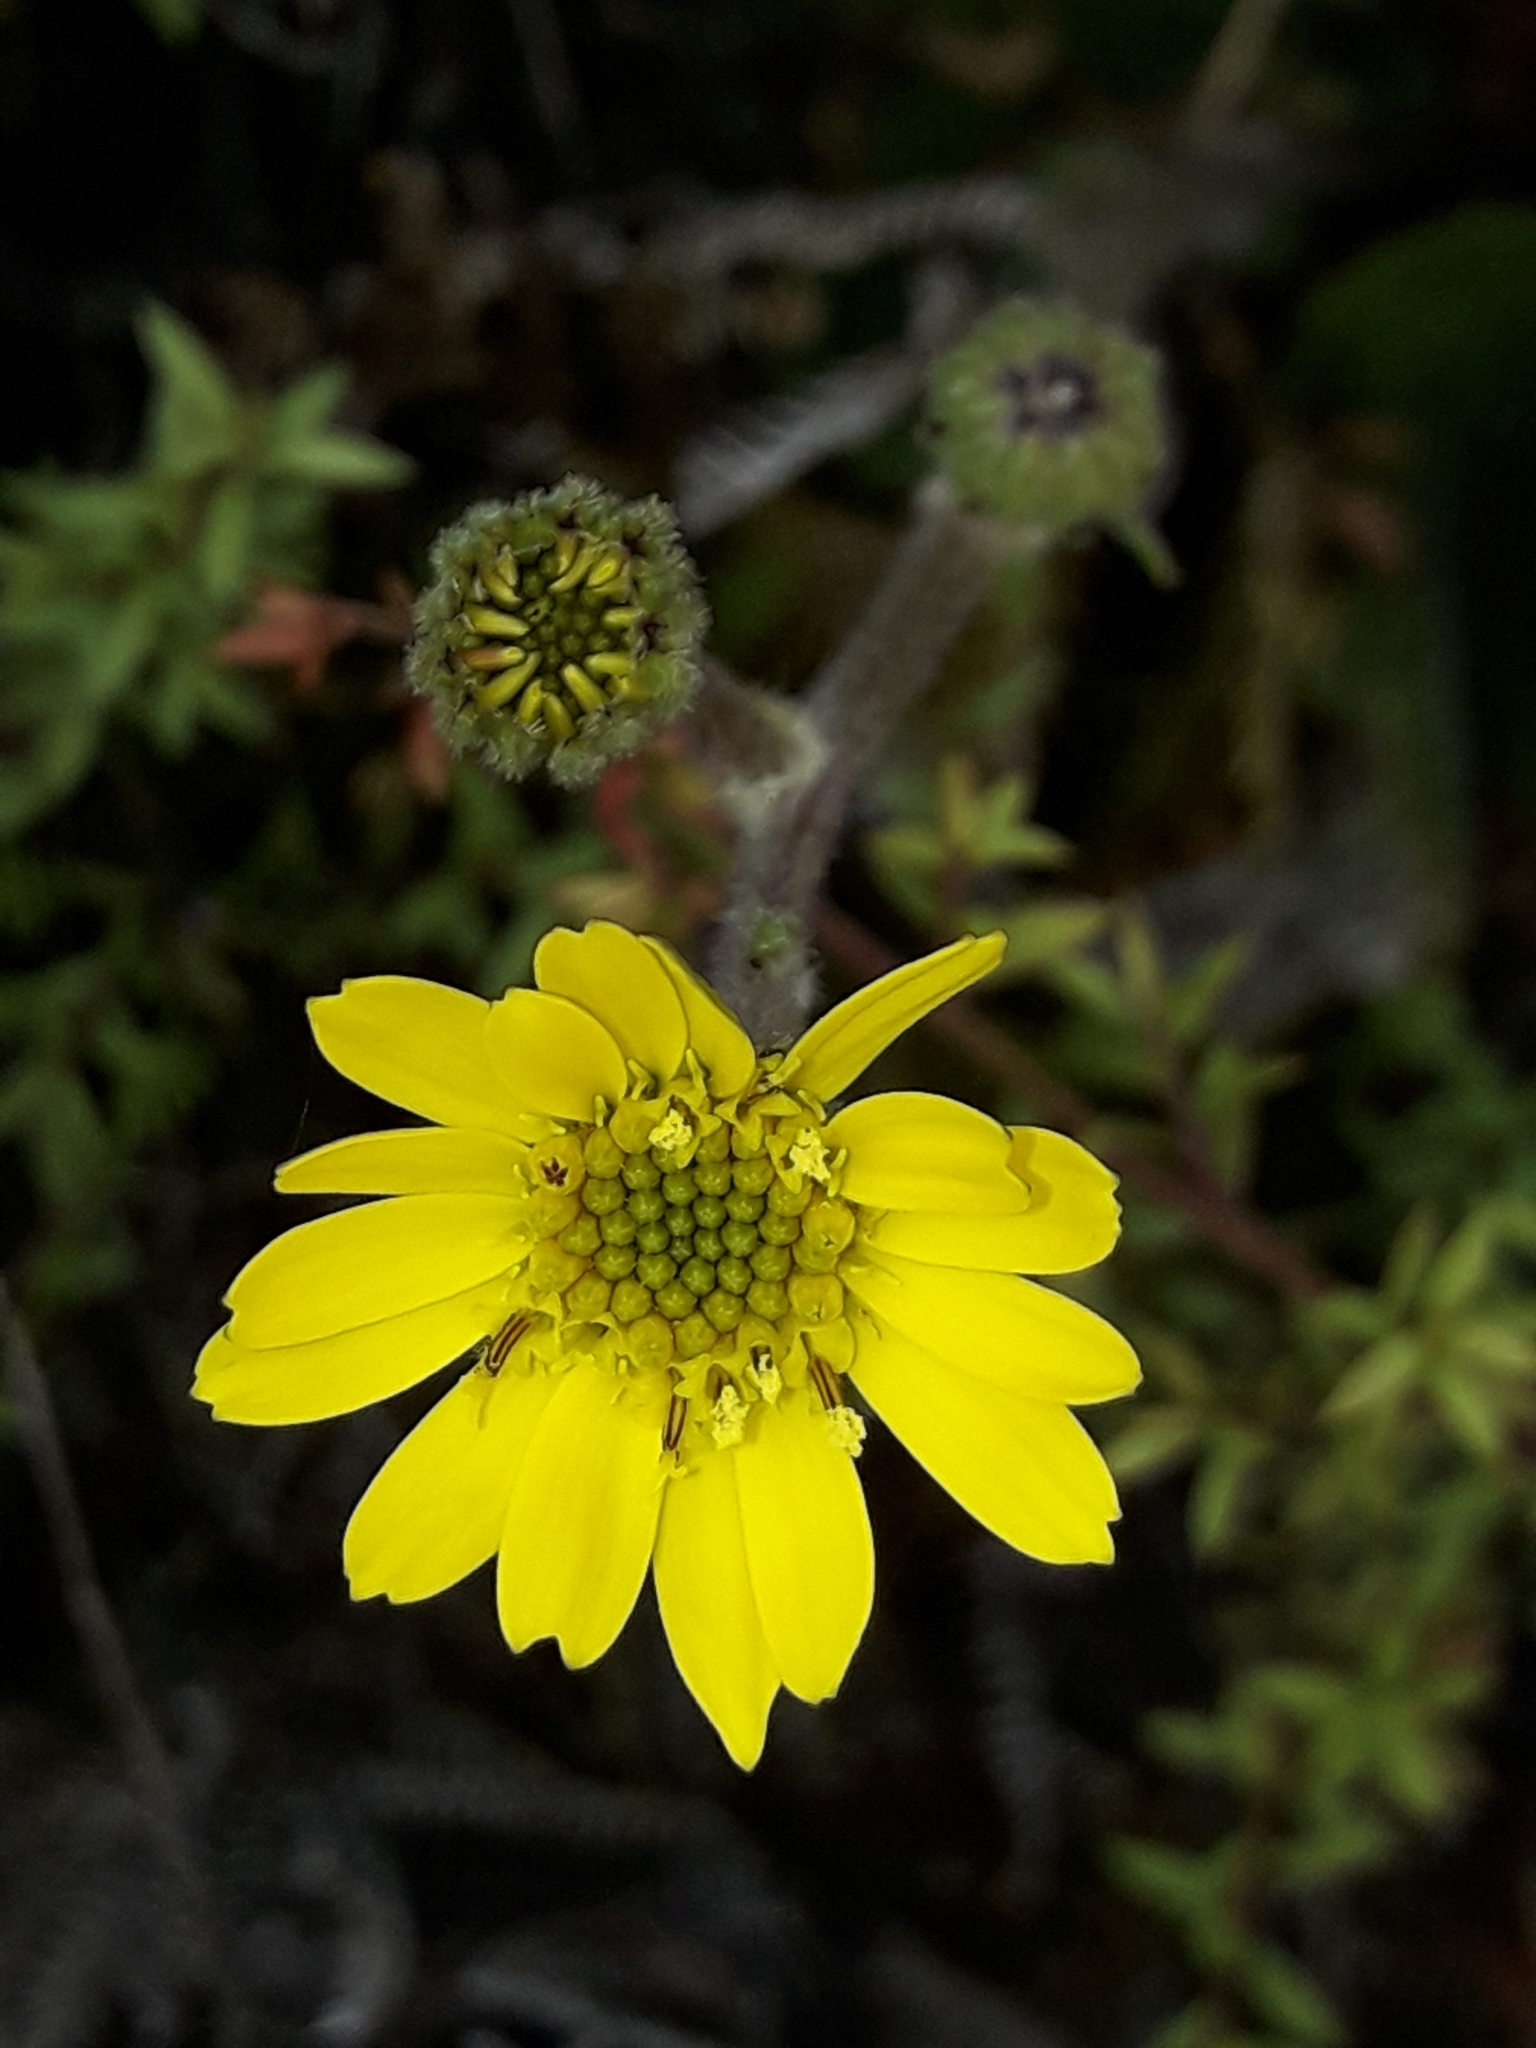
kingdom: Plantae
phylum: Tracheophyta
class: Magnoliopsida
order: Asterales
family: Asteraceae
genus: Brachyglottis
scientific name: Brachyglottis lagopus
